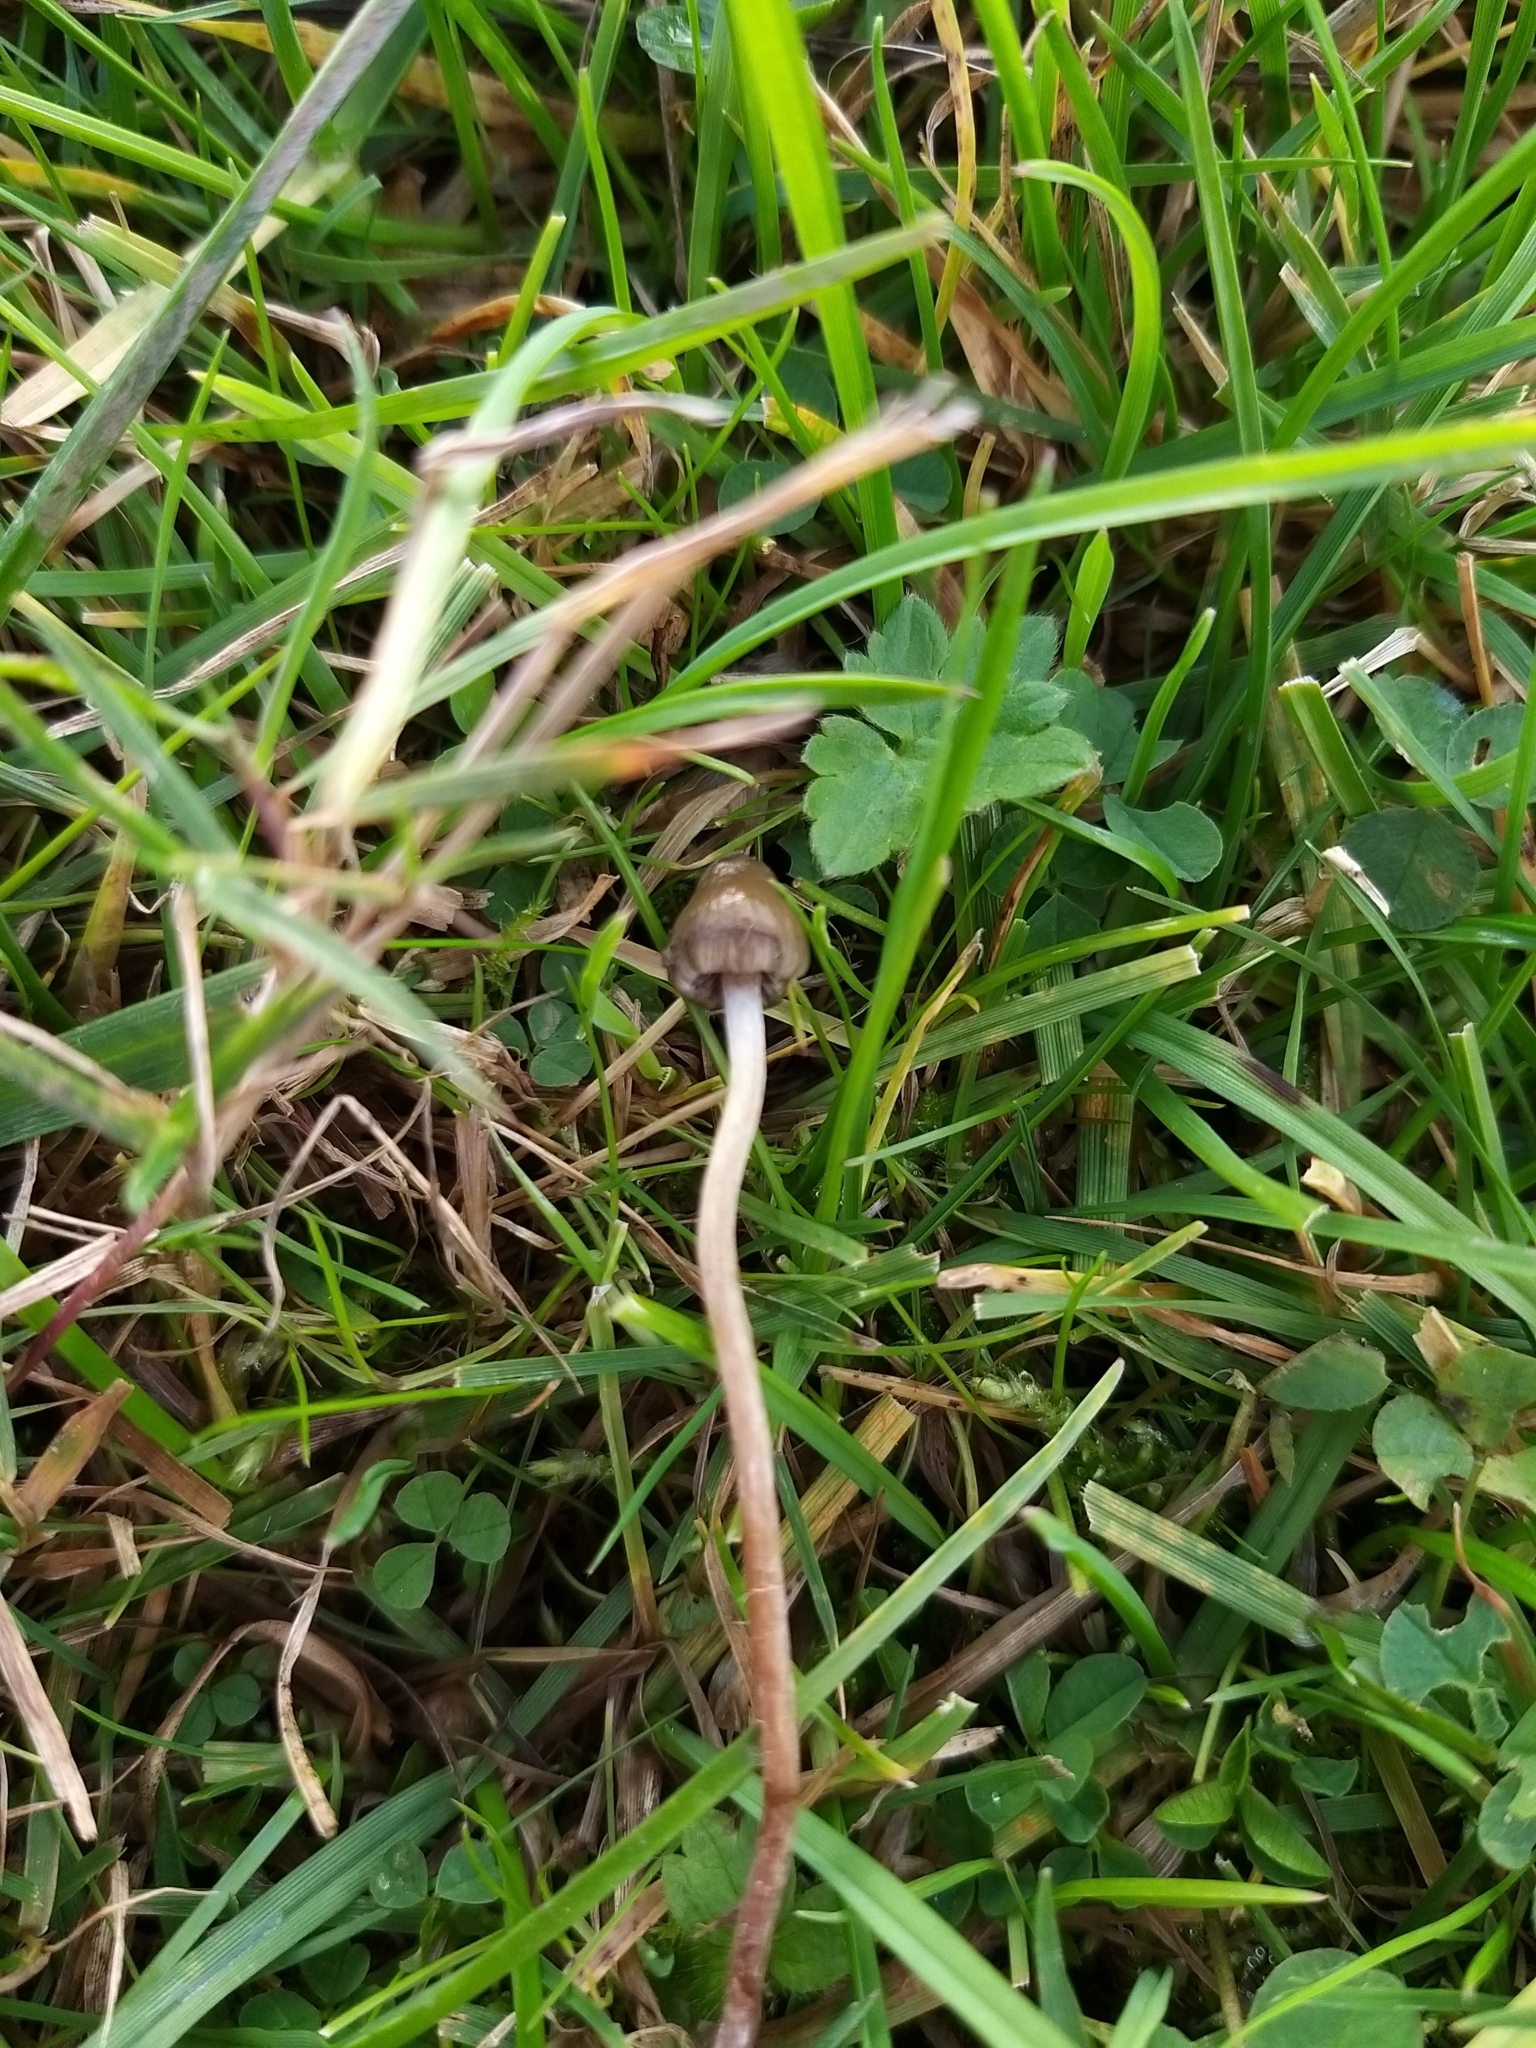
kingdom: Fungi
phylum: Basidiomycota
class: Agaricomycetes
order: Agaricales
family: Hymenogastraceae
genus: Psilocybe
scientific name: Psilocybe semilanceata
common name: Liberty cap
